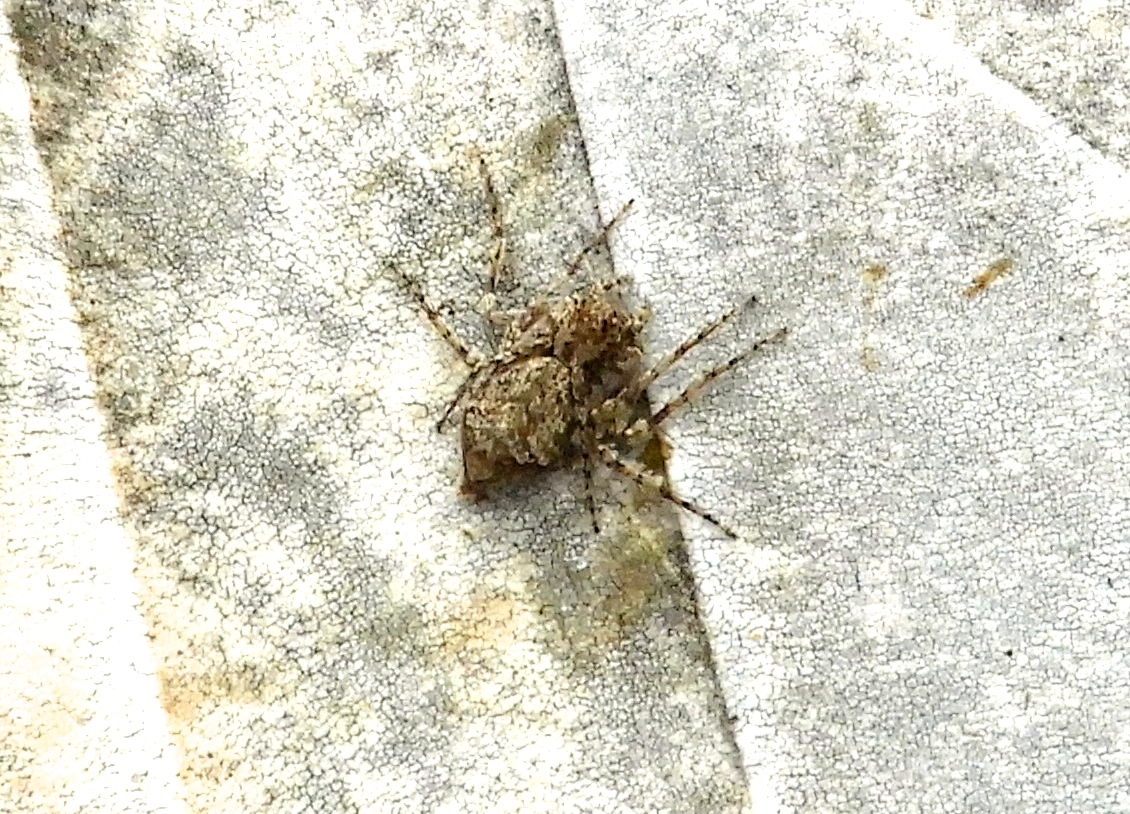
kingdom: Animalia
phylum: Arthropoda
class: Arachnida
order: Araneae
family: Oxyopidae
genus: Hamataliwa
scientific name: Hamataliwa
